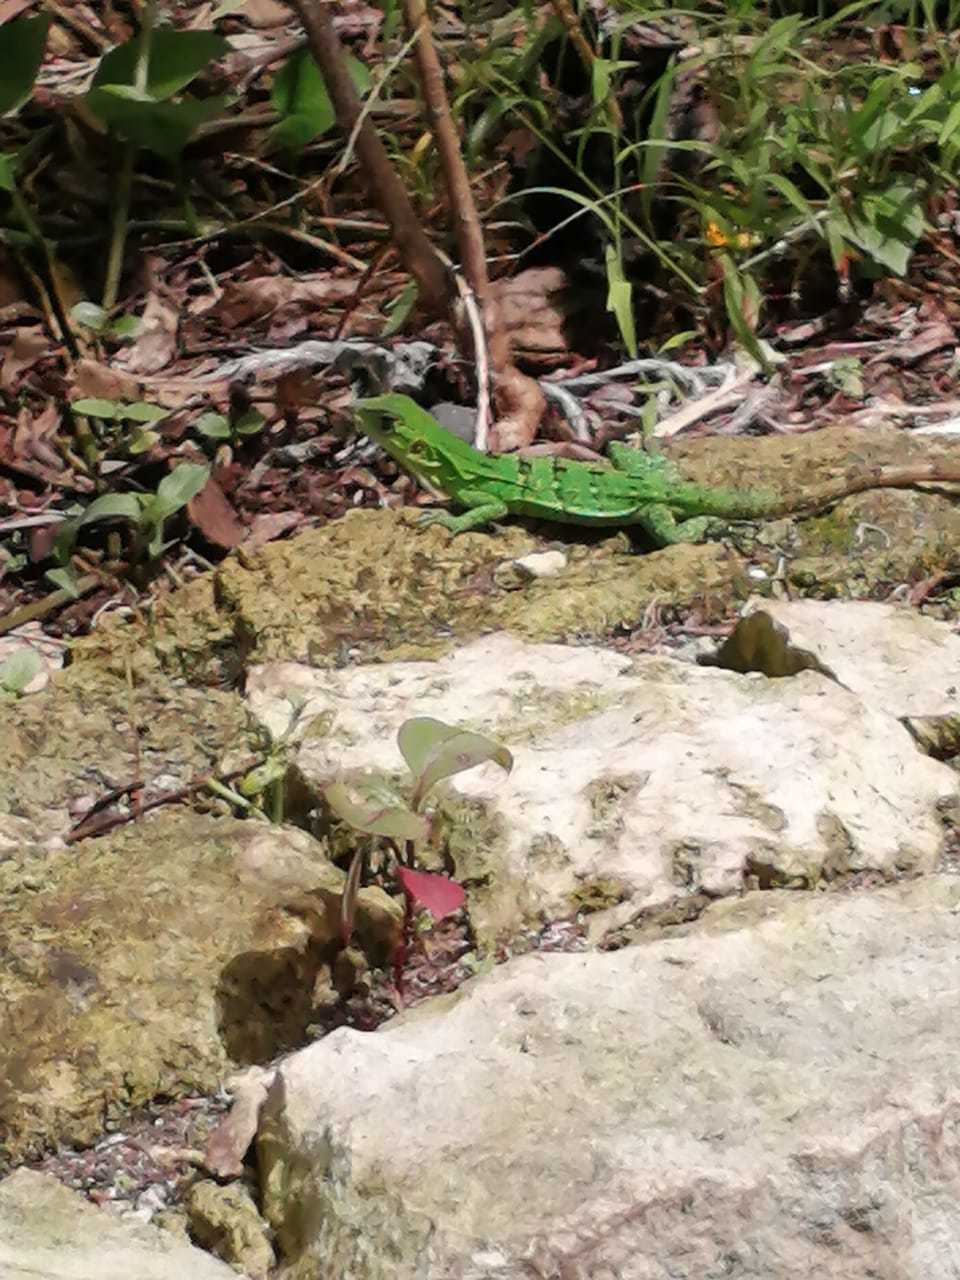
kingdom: Animalia
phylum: Chordata
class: Squamata
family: Iguanidae
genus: Ctenosaura
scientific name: Ctenosaura similis
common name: Black spiny-tailed iguana
